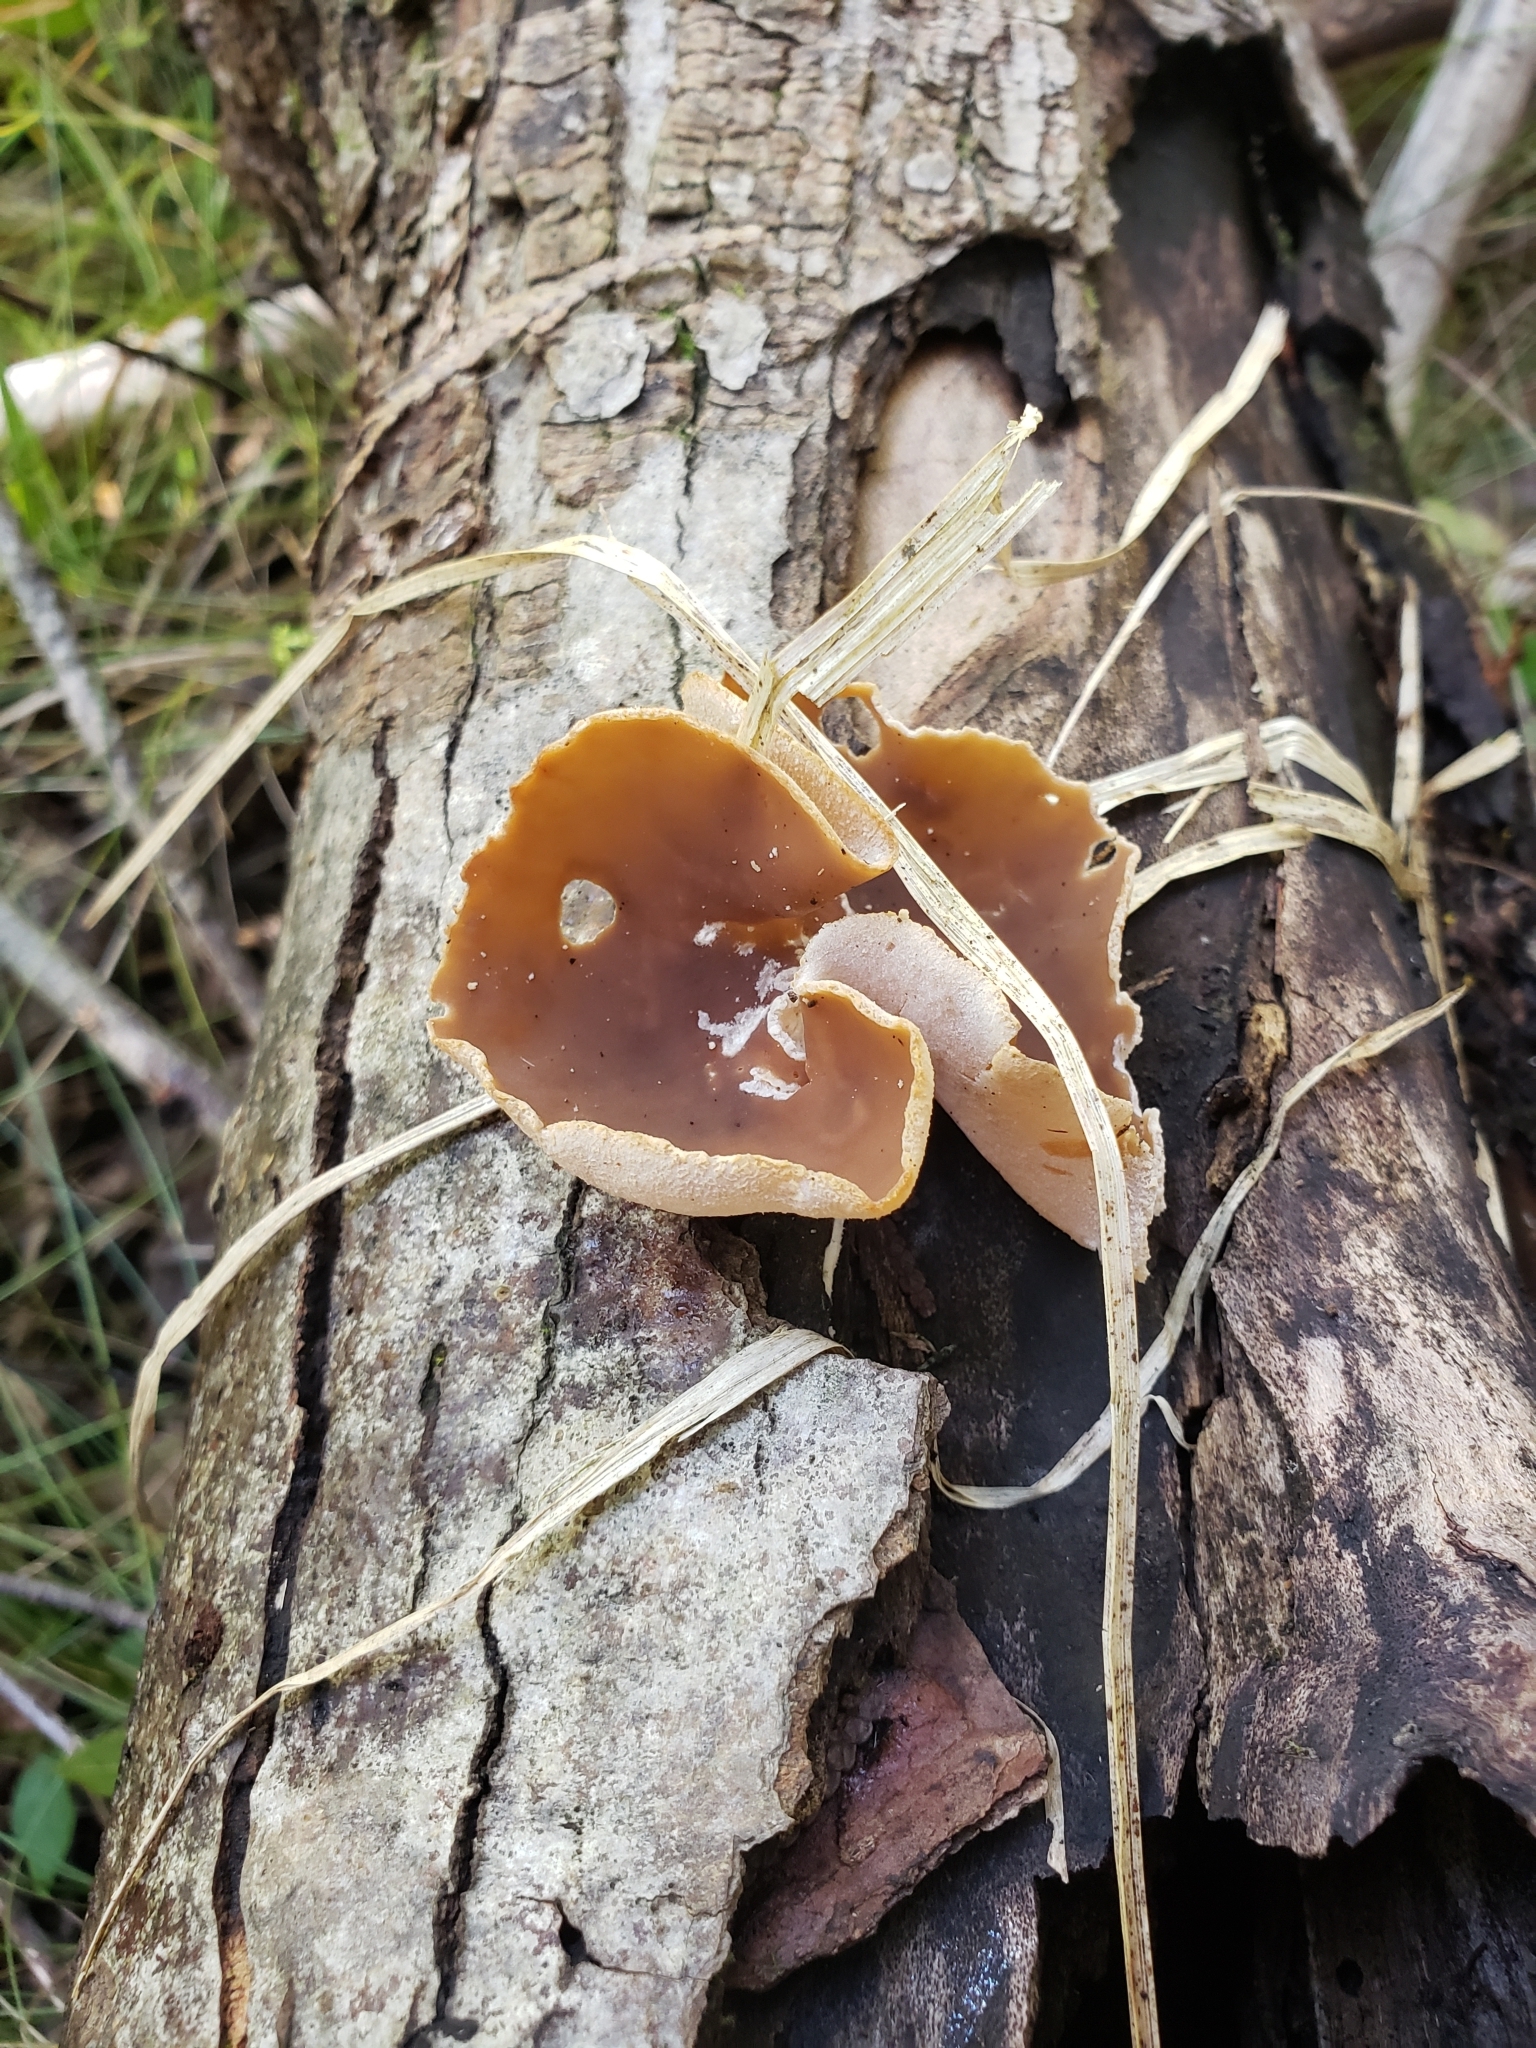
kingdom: Fungi
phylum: Ascomycota
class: Pezizomycetes
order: Pezizales
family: Pezizaceae
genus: Peziza
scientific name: Peziza varia
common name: Layered cup
